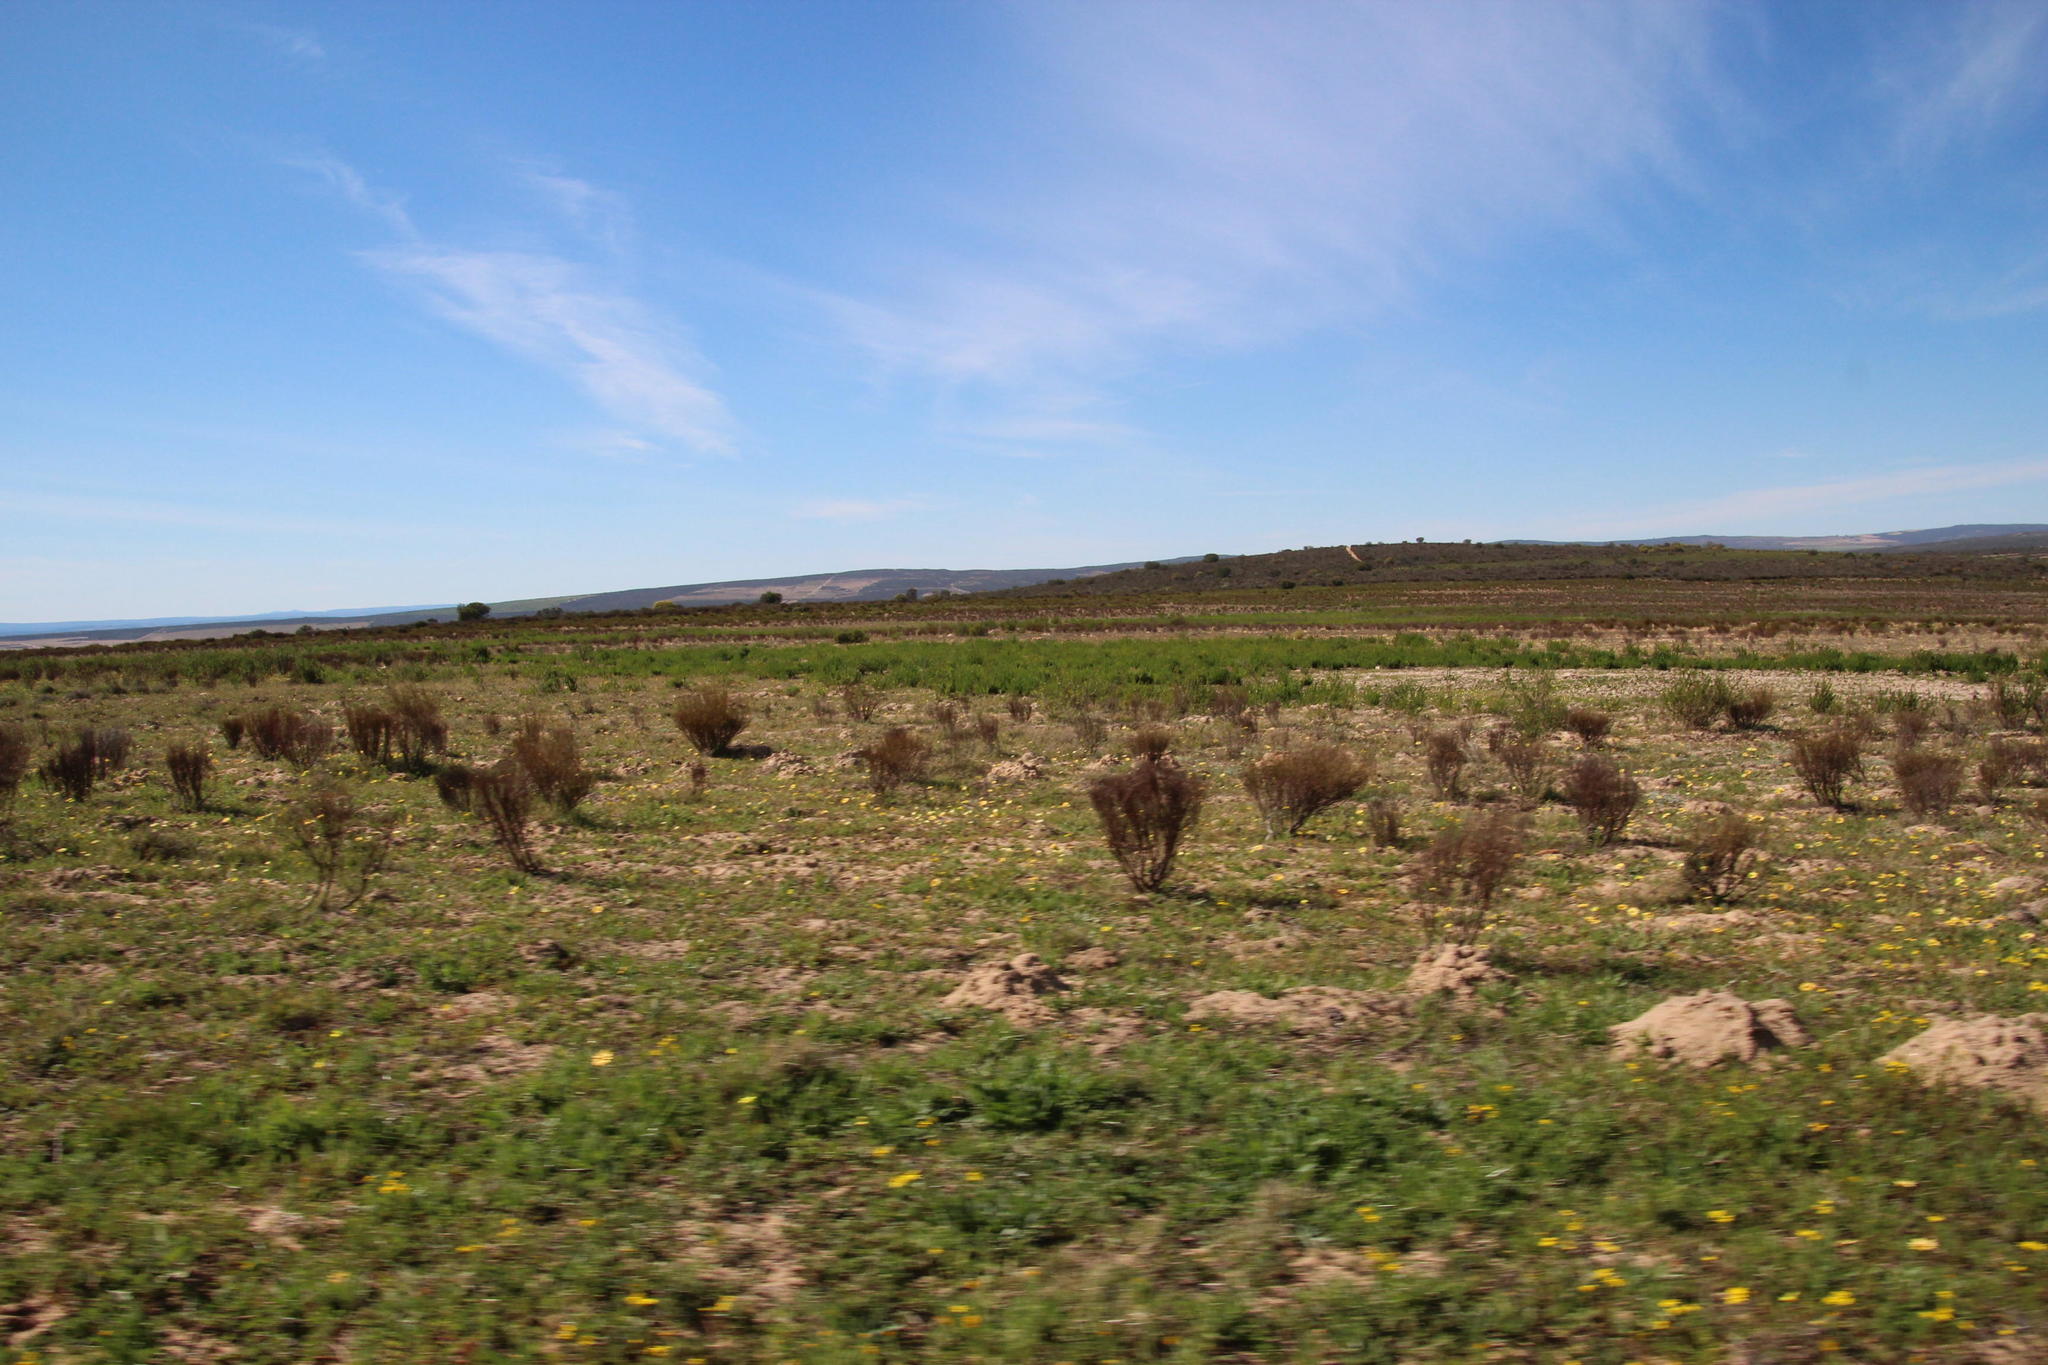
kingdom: Plantae
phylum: Tracheophyta
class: Magnoliopsida
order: Fabales
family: Fabaceae
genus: Aspalathus
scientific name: Aspalathus linearis
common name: Rooibos-tea
